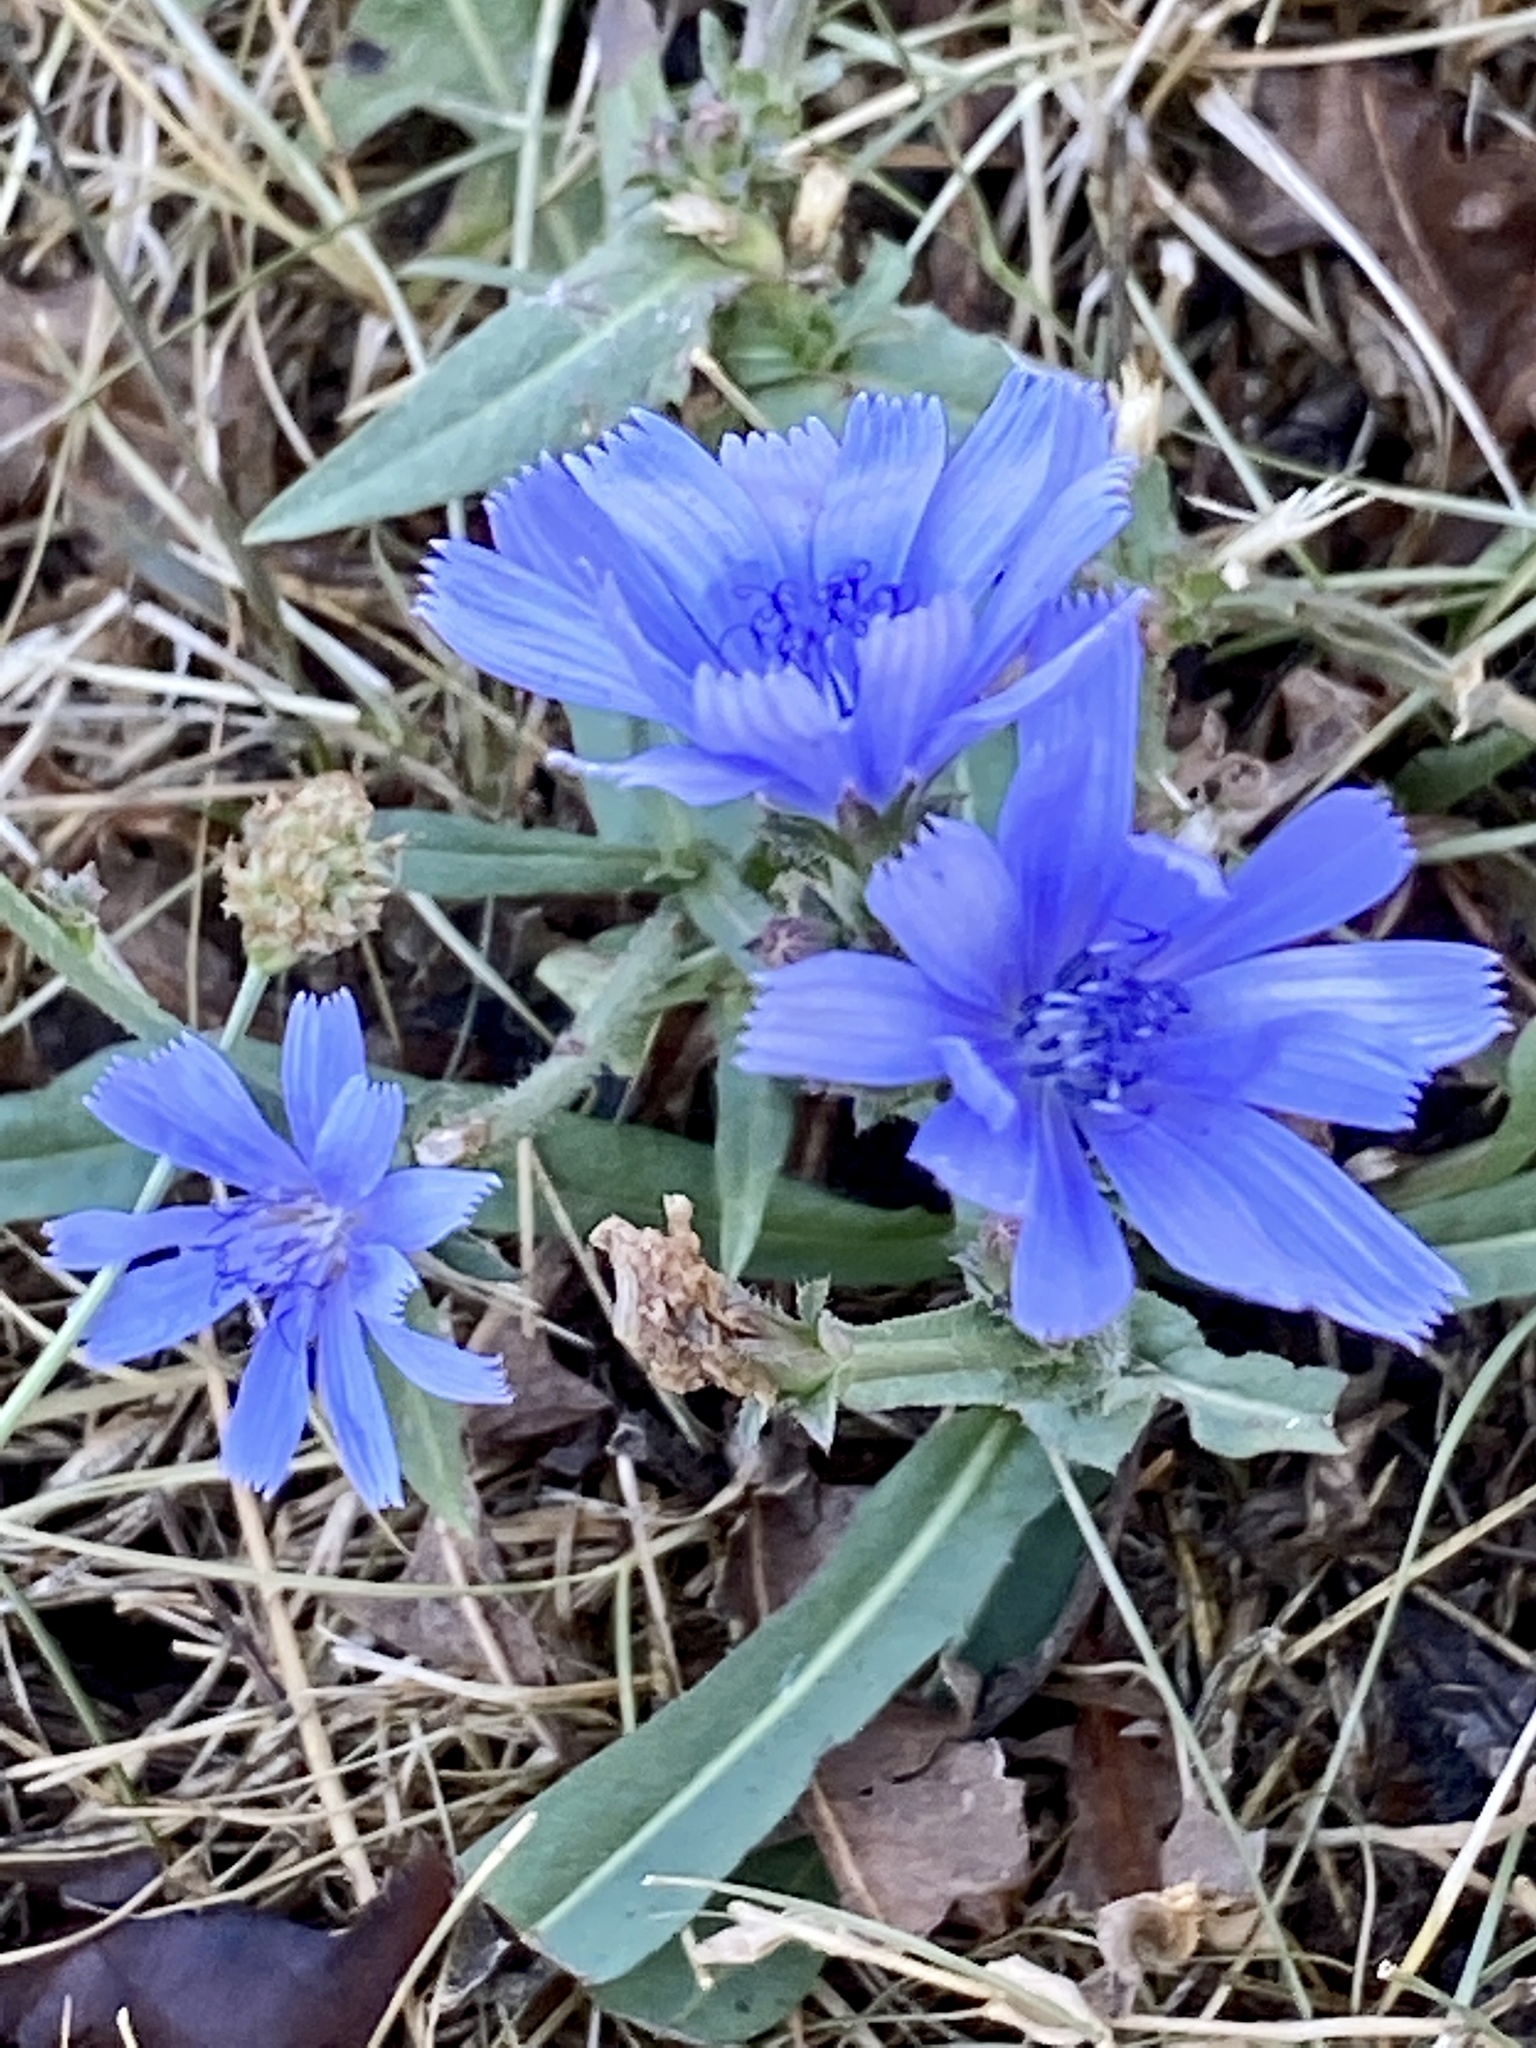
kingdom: Plantae
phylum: Tracheophyta
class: Magnoliopsida
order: Asterales
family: Asteraceae
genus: Cichorium
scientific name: Cichorium intybus
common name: Chicory
